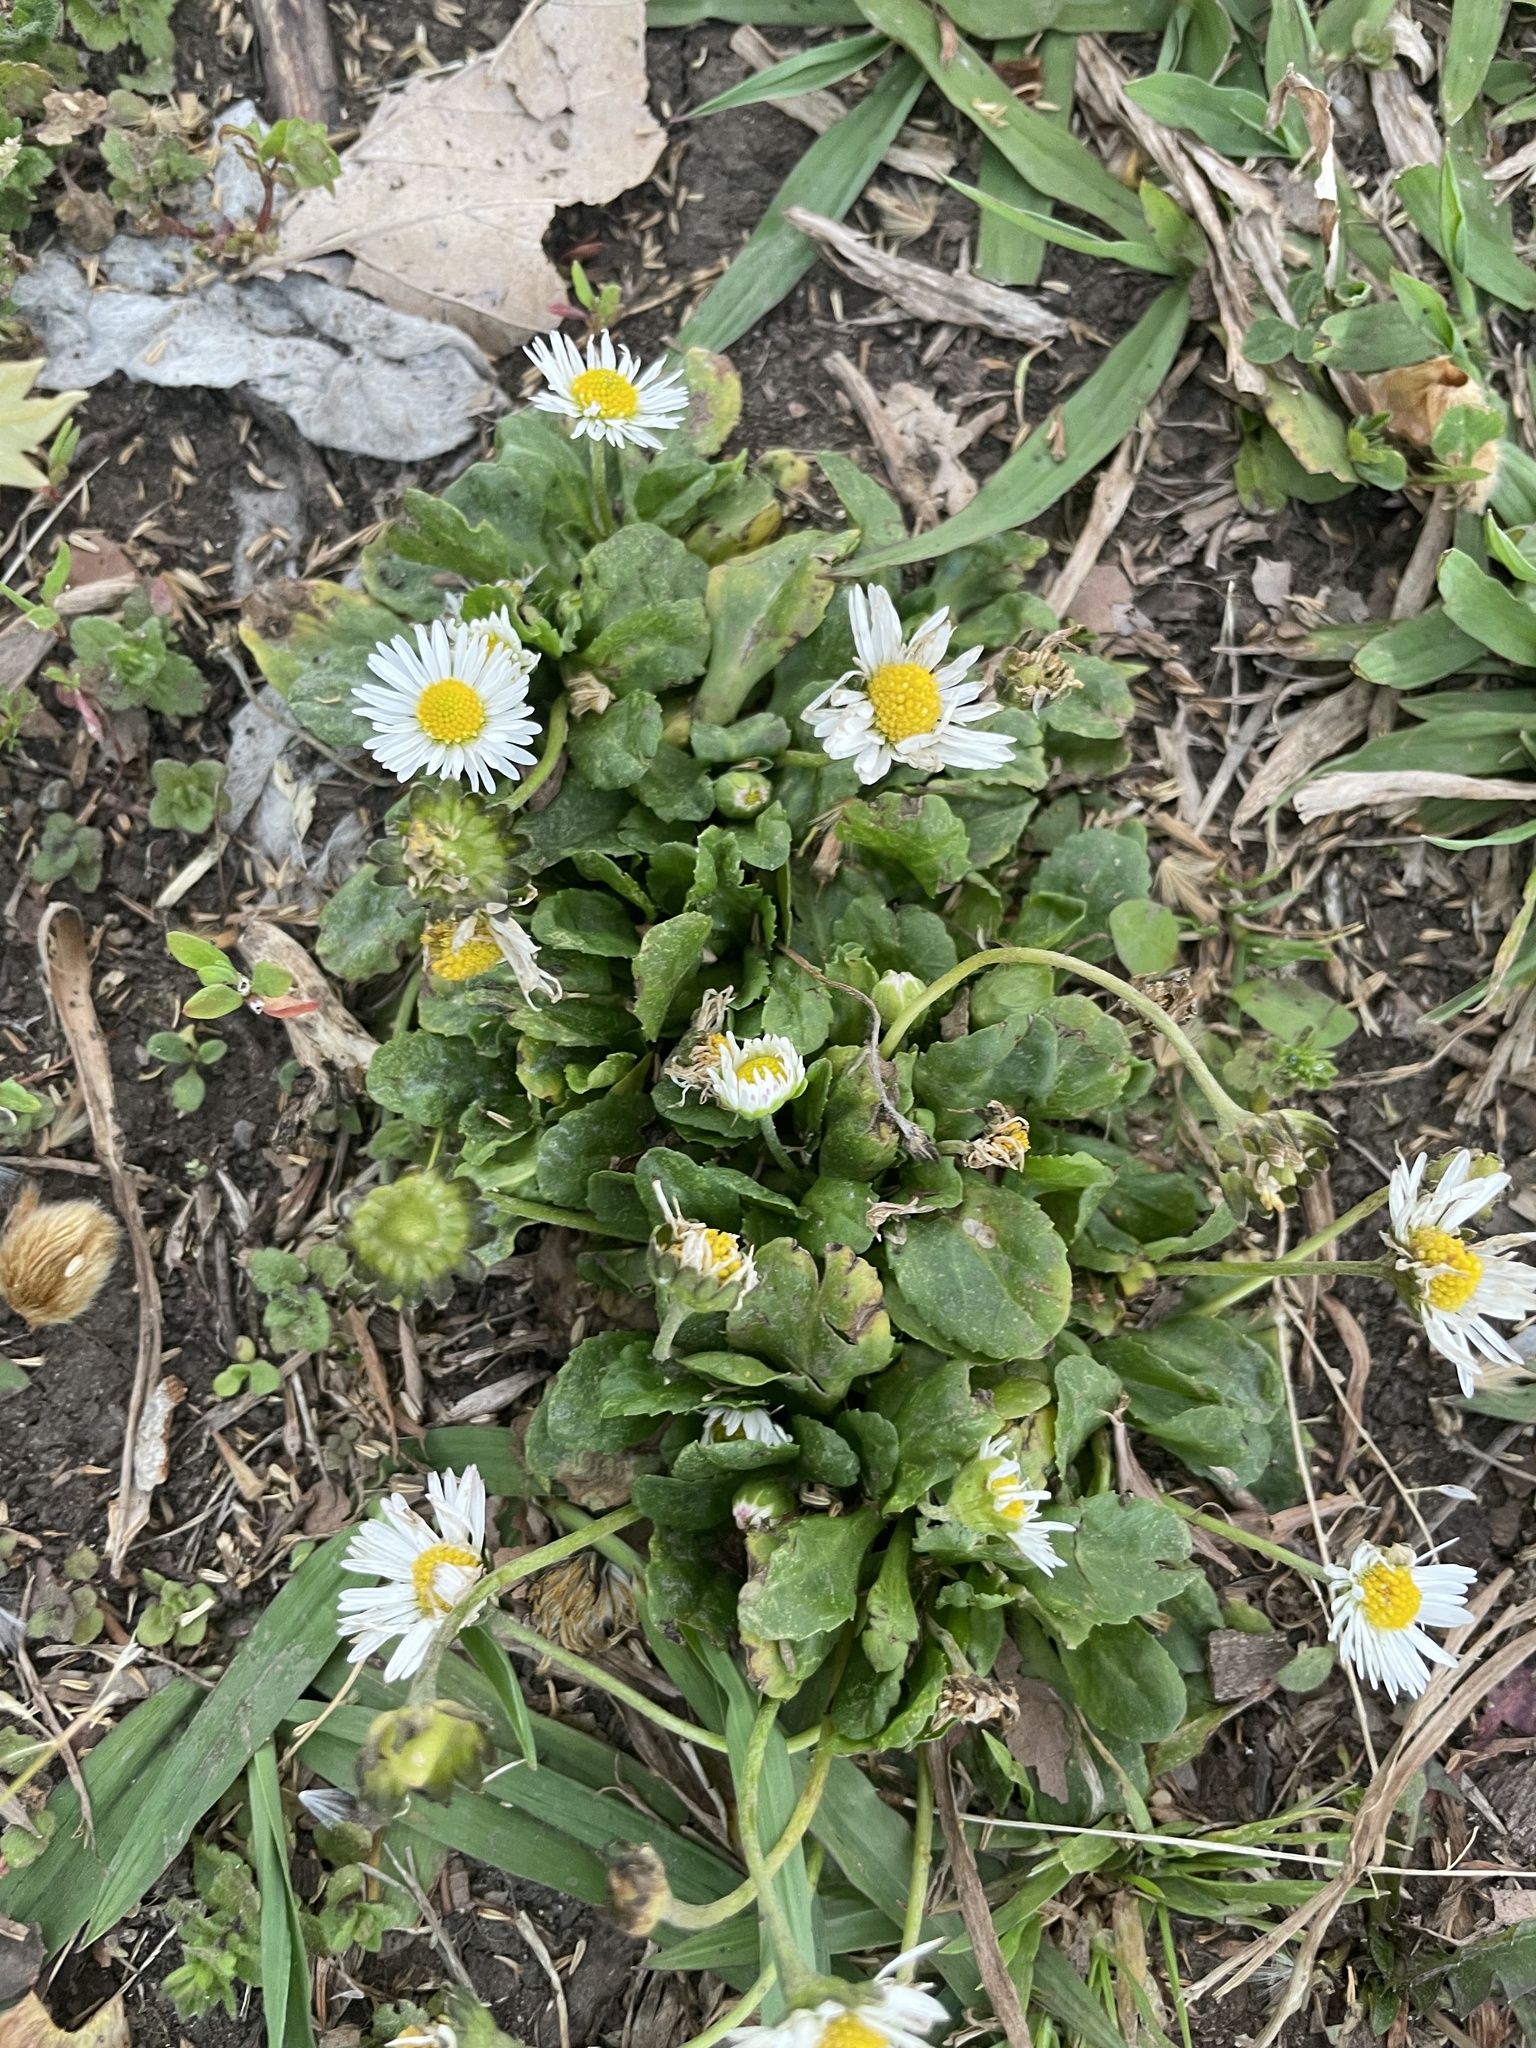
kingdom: Plantae
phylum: Tracheophyta
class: Magnoliopsida
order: Asterales
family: Asteraceae
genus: Bellis
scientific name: Bellis perennis
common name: Lawndaisy
